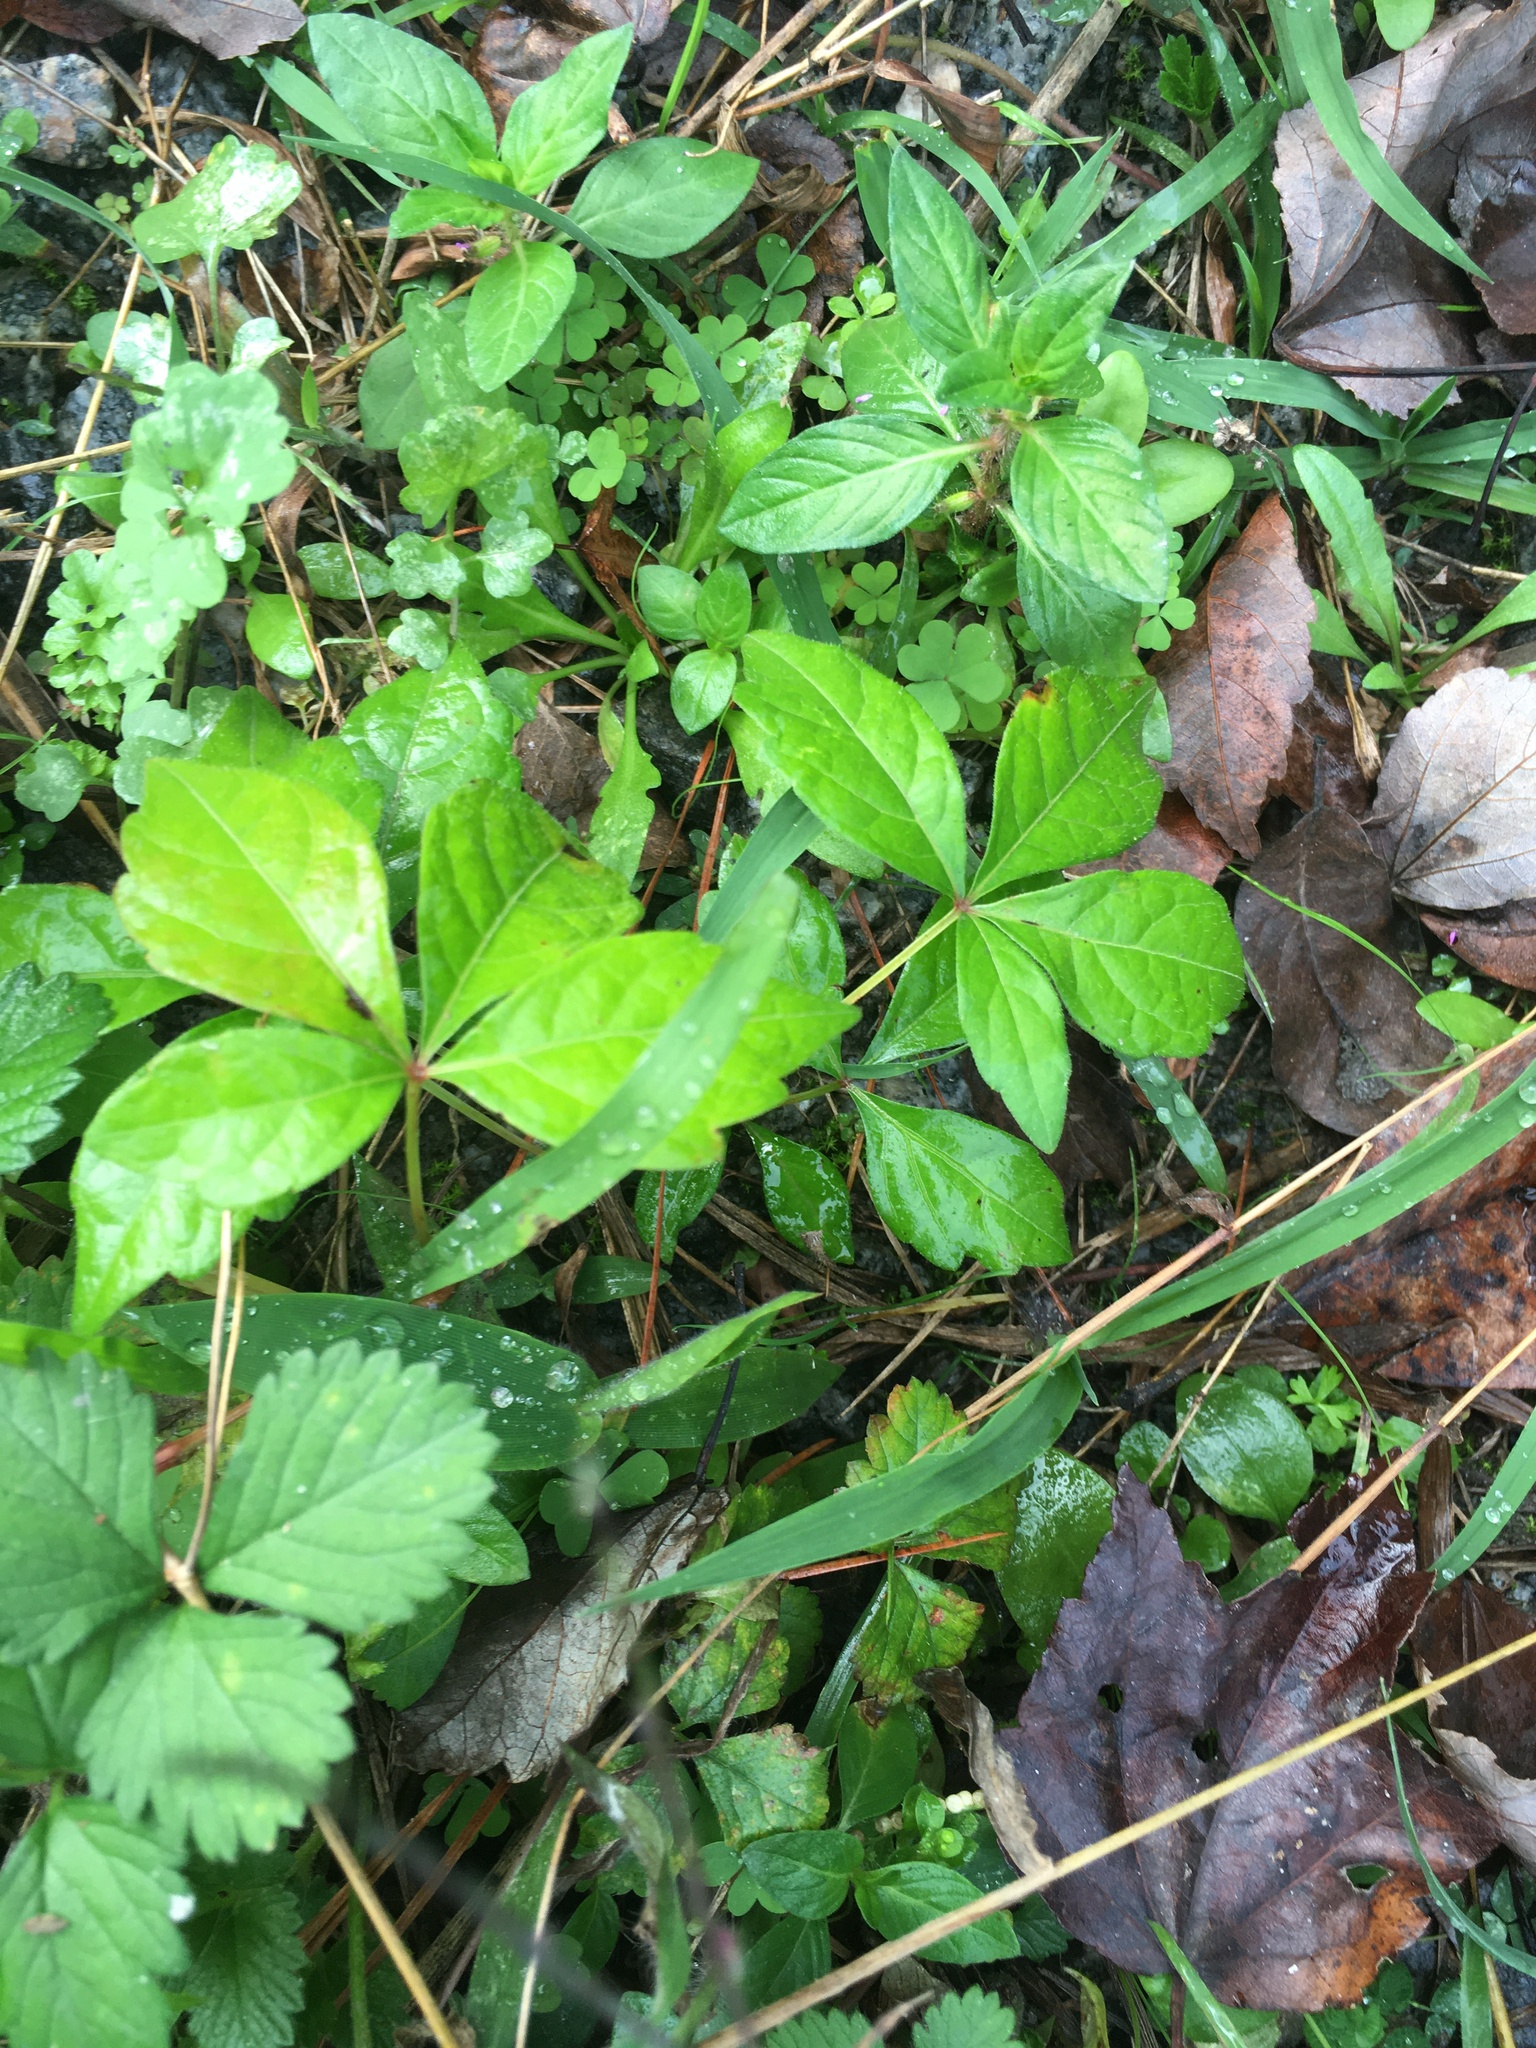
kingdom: Plantae
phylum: Tracheophyta
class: Magnoliopsida
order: Vitales
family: Vitaceae
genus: Parthenocissus
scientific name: Parthenocissus quinquefolia
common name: Virginia-creeper
